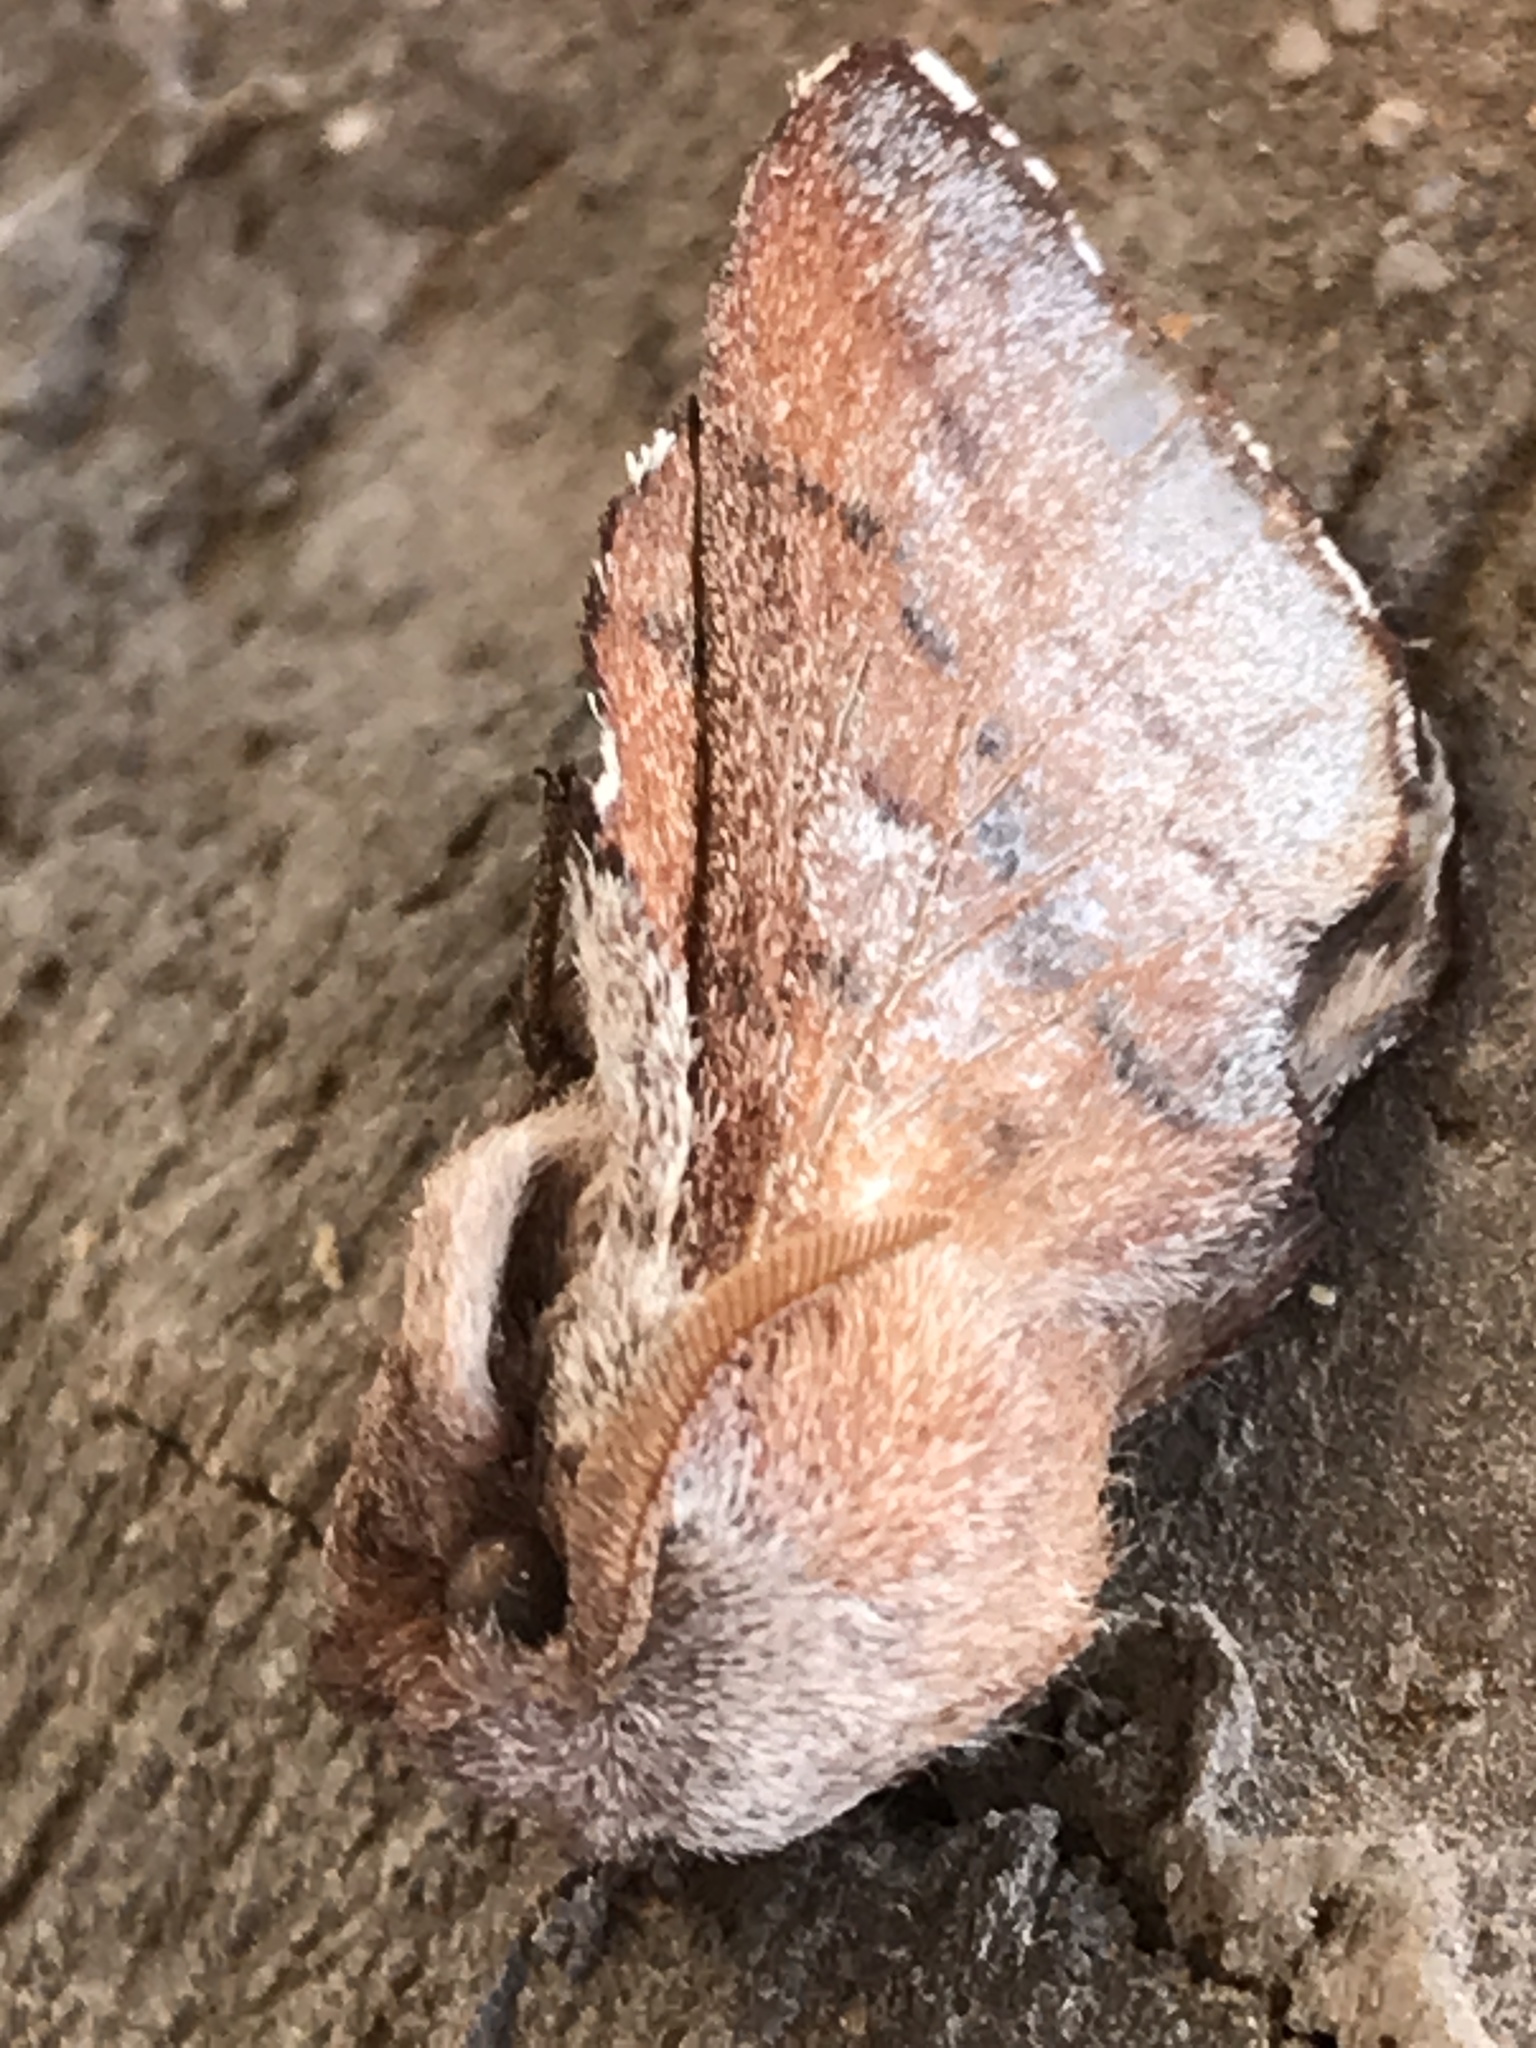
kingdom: Animalia
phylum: Arthropoda
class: Insecta
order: Lepidoptera
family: Lasiocampidae
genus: Phyllodesma
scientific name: Phyllodesma americana
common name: American lappet moth
